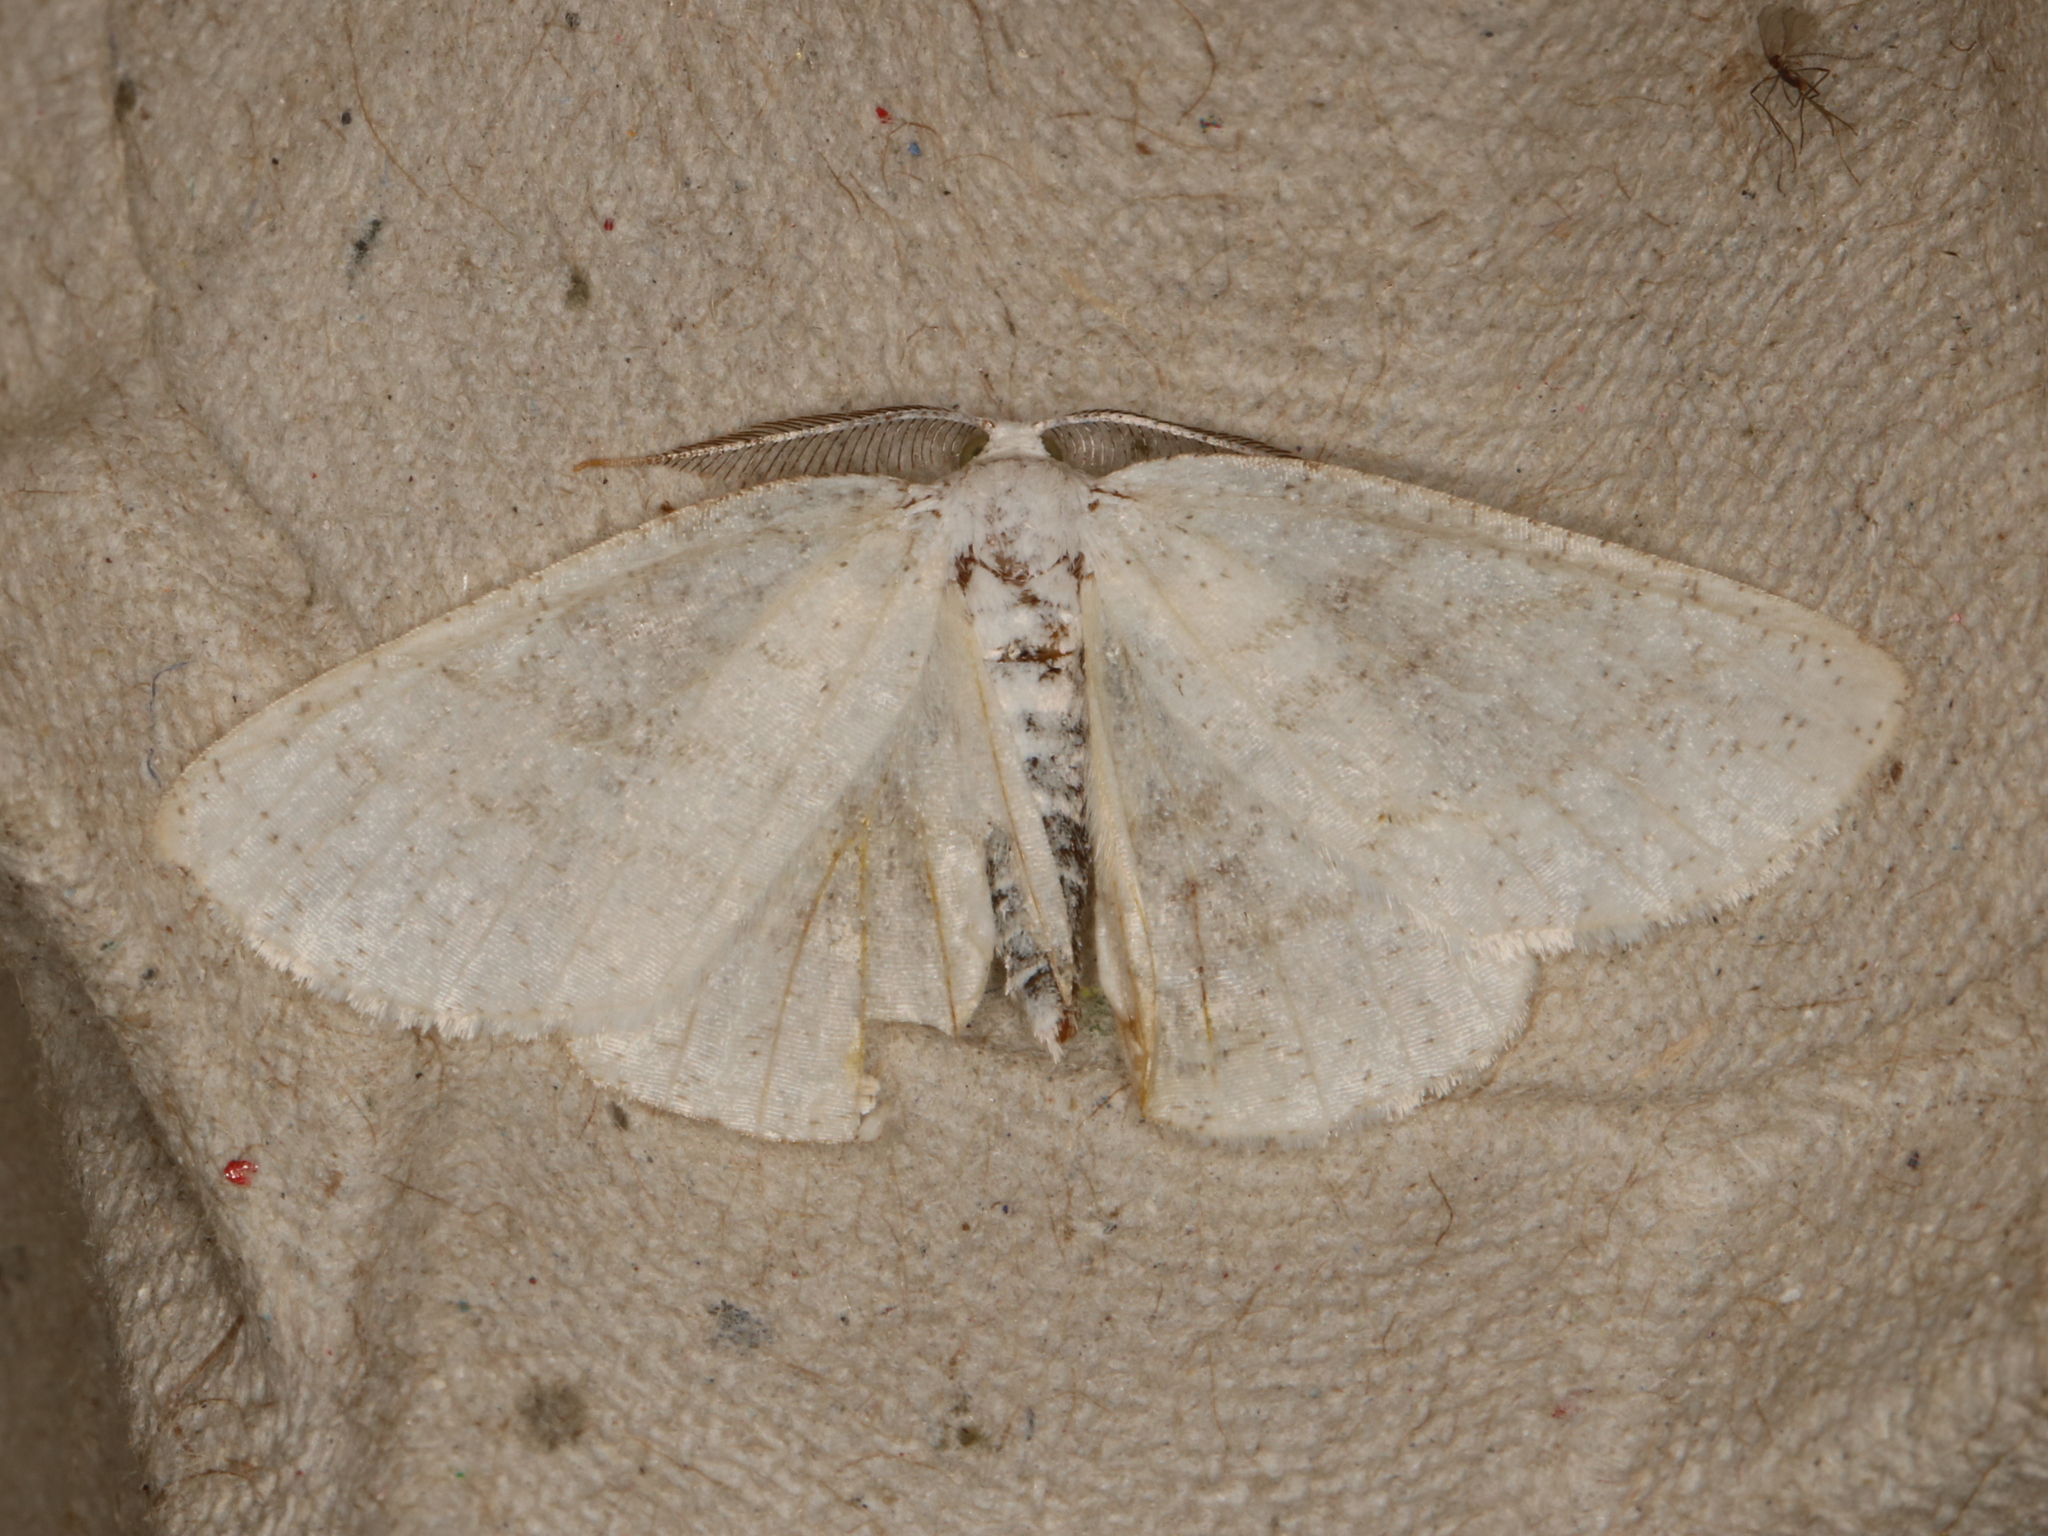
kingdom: Animalia
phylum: Arthropoda
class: Insecta
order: Lepidoptera
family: Geometridae
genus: Cabera
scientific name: Cabera pusaria
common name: Common white wave
